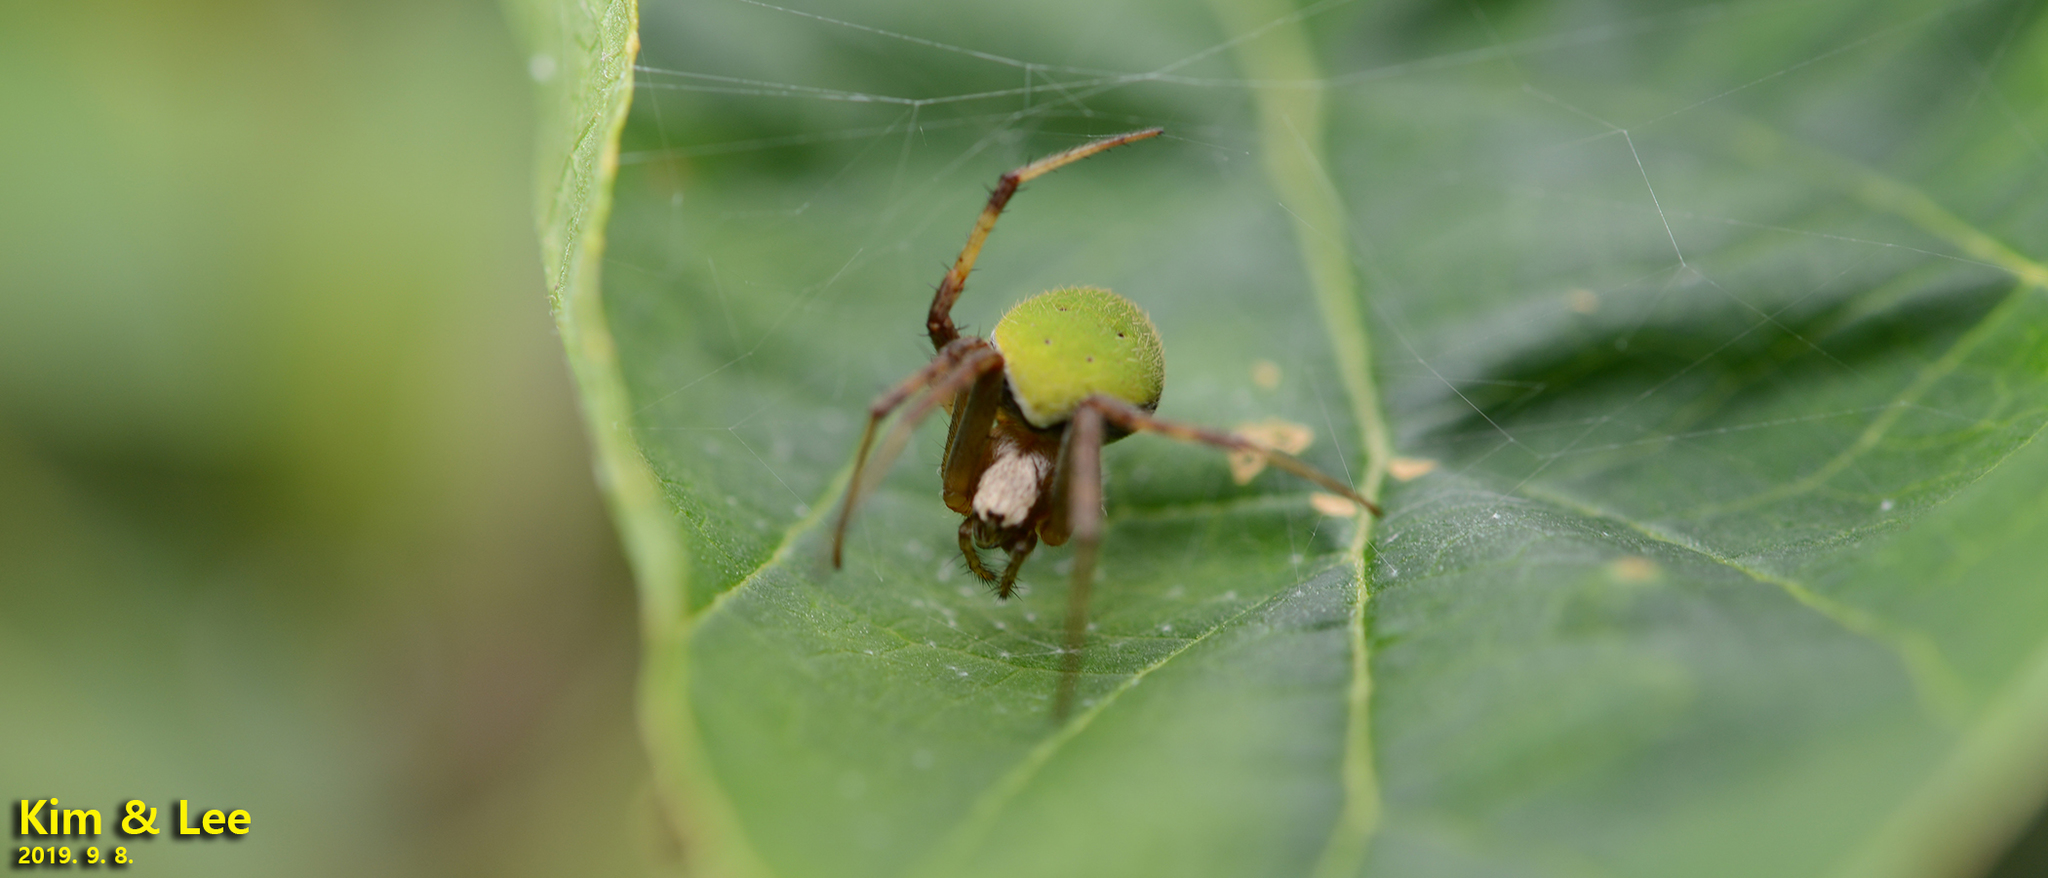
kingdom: Animalia
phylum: Arthropoda
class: Arachnida
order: Araneae
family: Araneidae
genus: Neoscona
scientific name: Neoscona mellotteei
